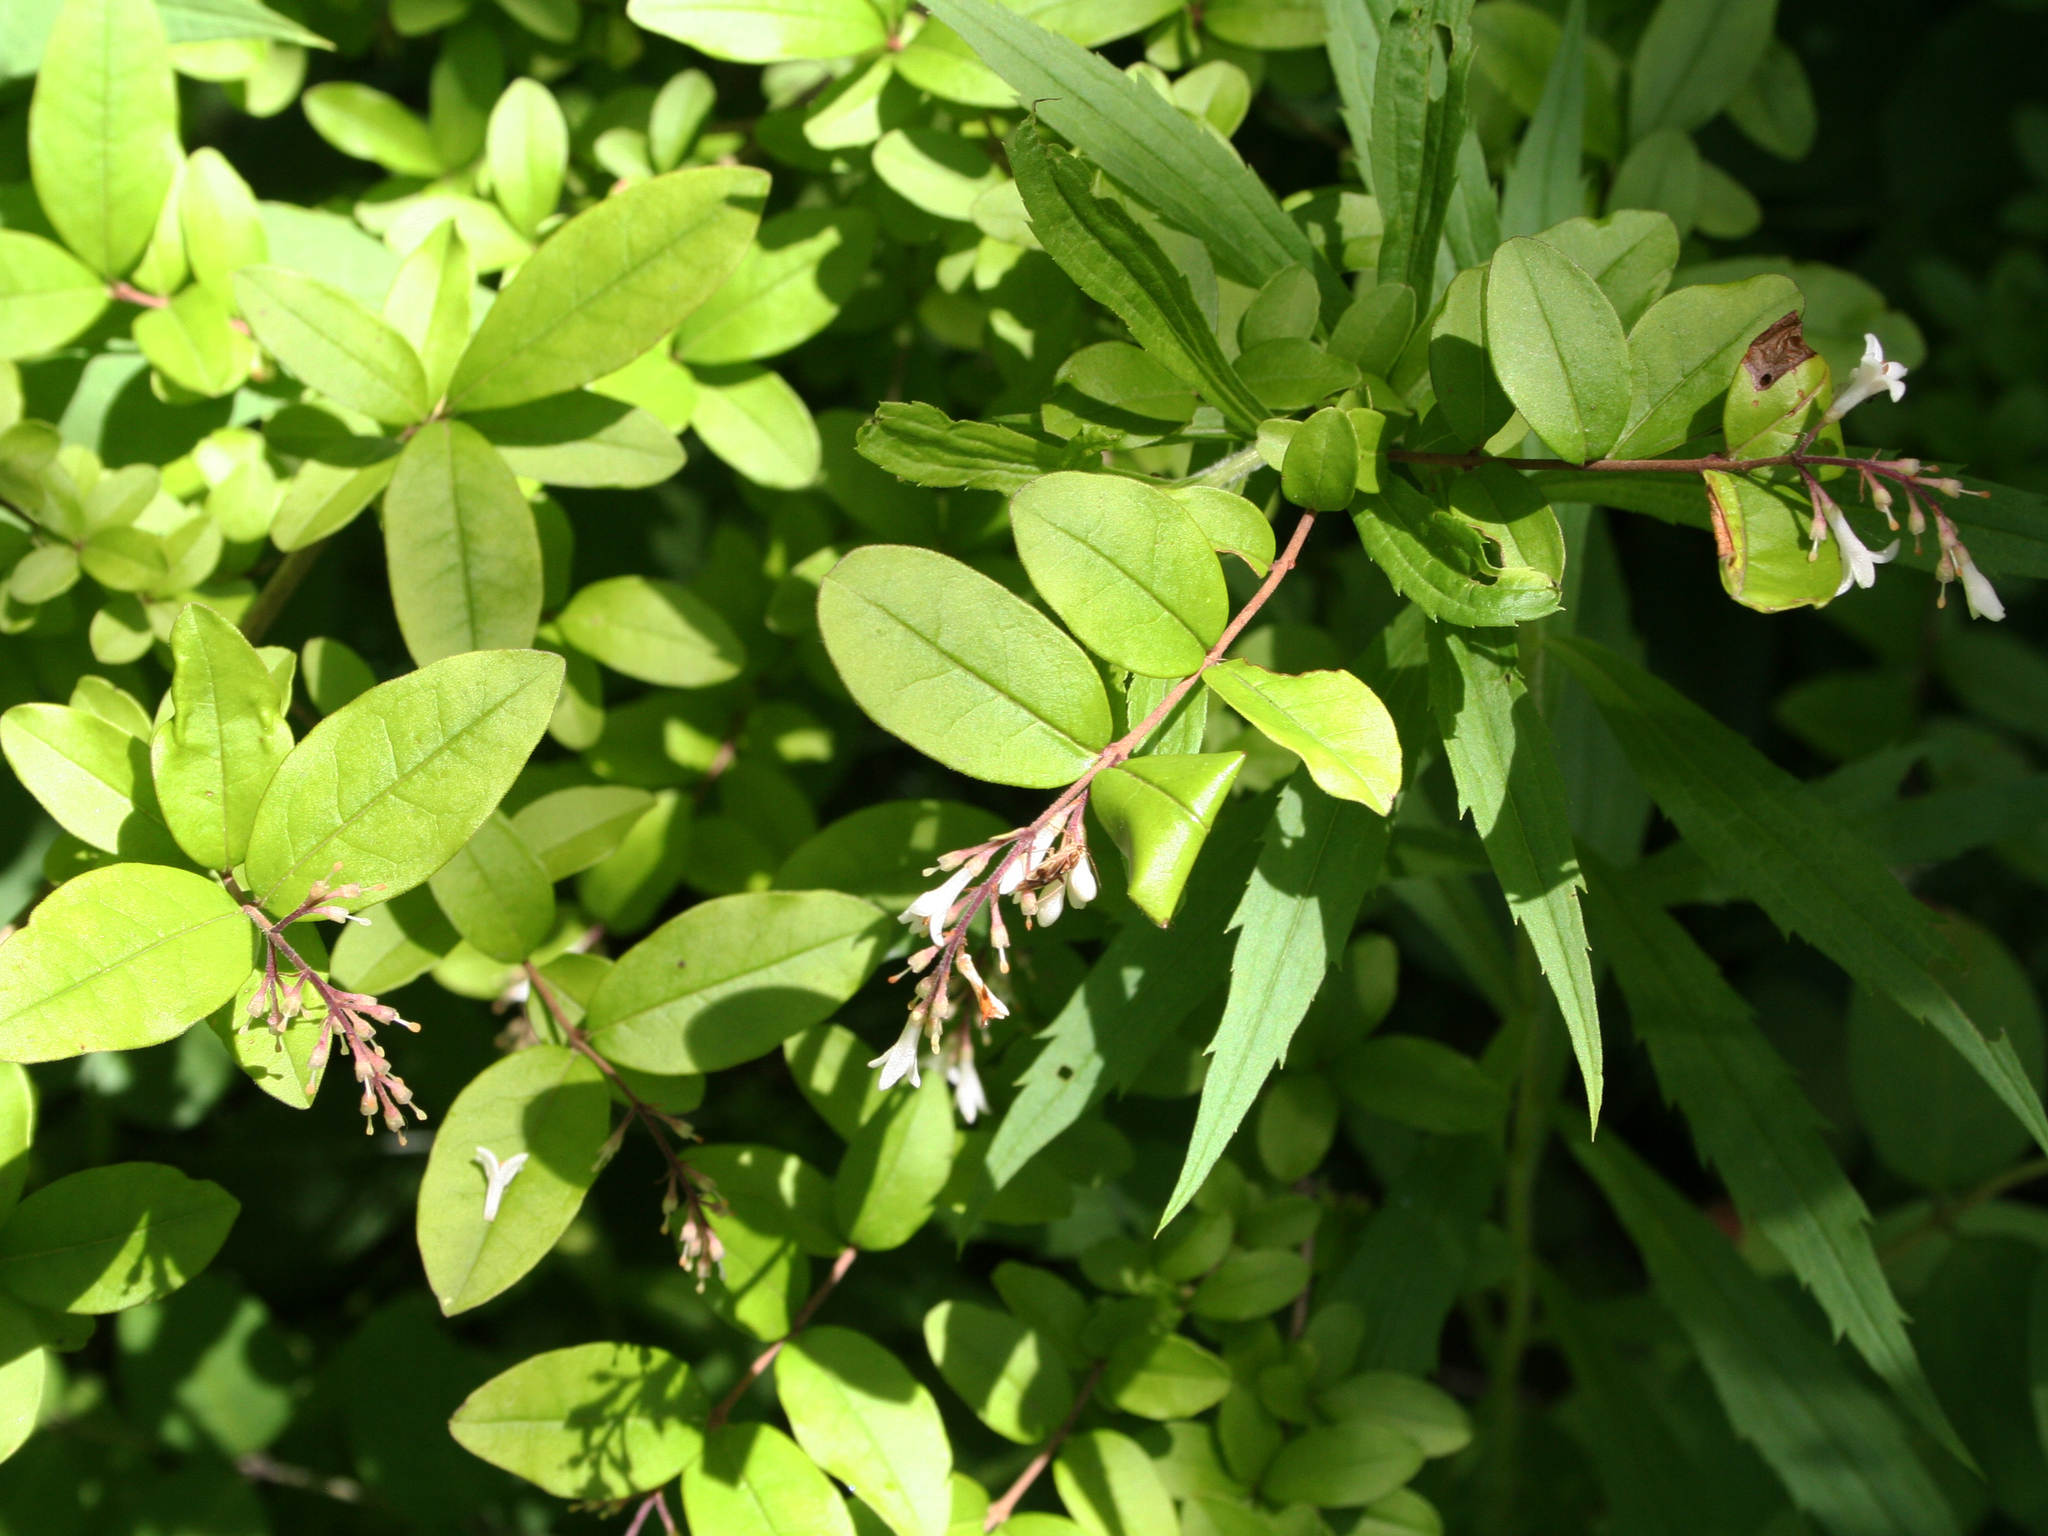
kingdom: Plantae
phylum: Tracheophyta
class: Magnoliopsida
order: Lamiales
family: Oleaceae
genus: Ligustrum
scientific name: Ligustrum obtusifolium
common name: Border privet
